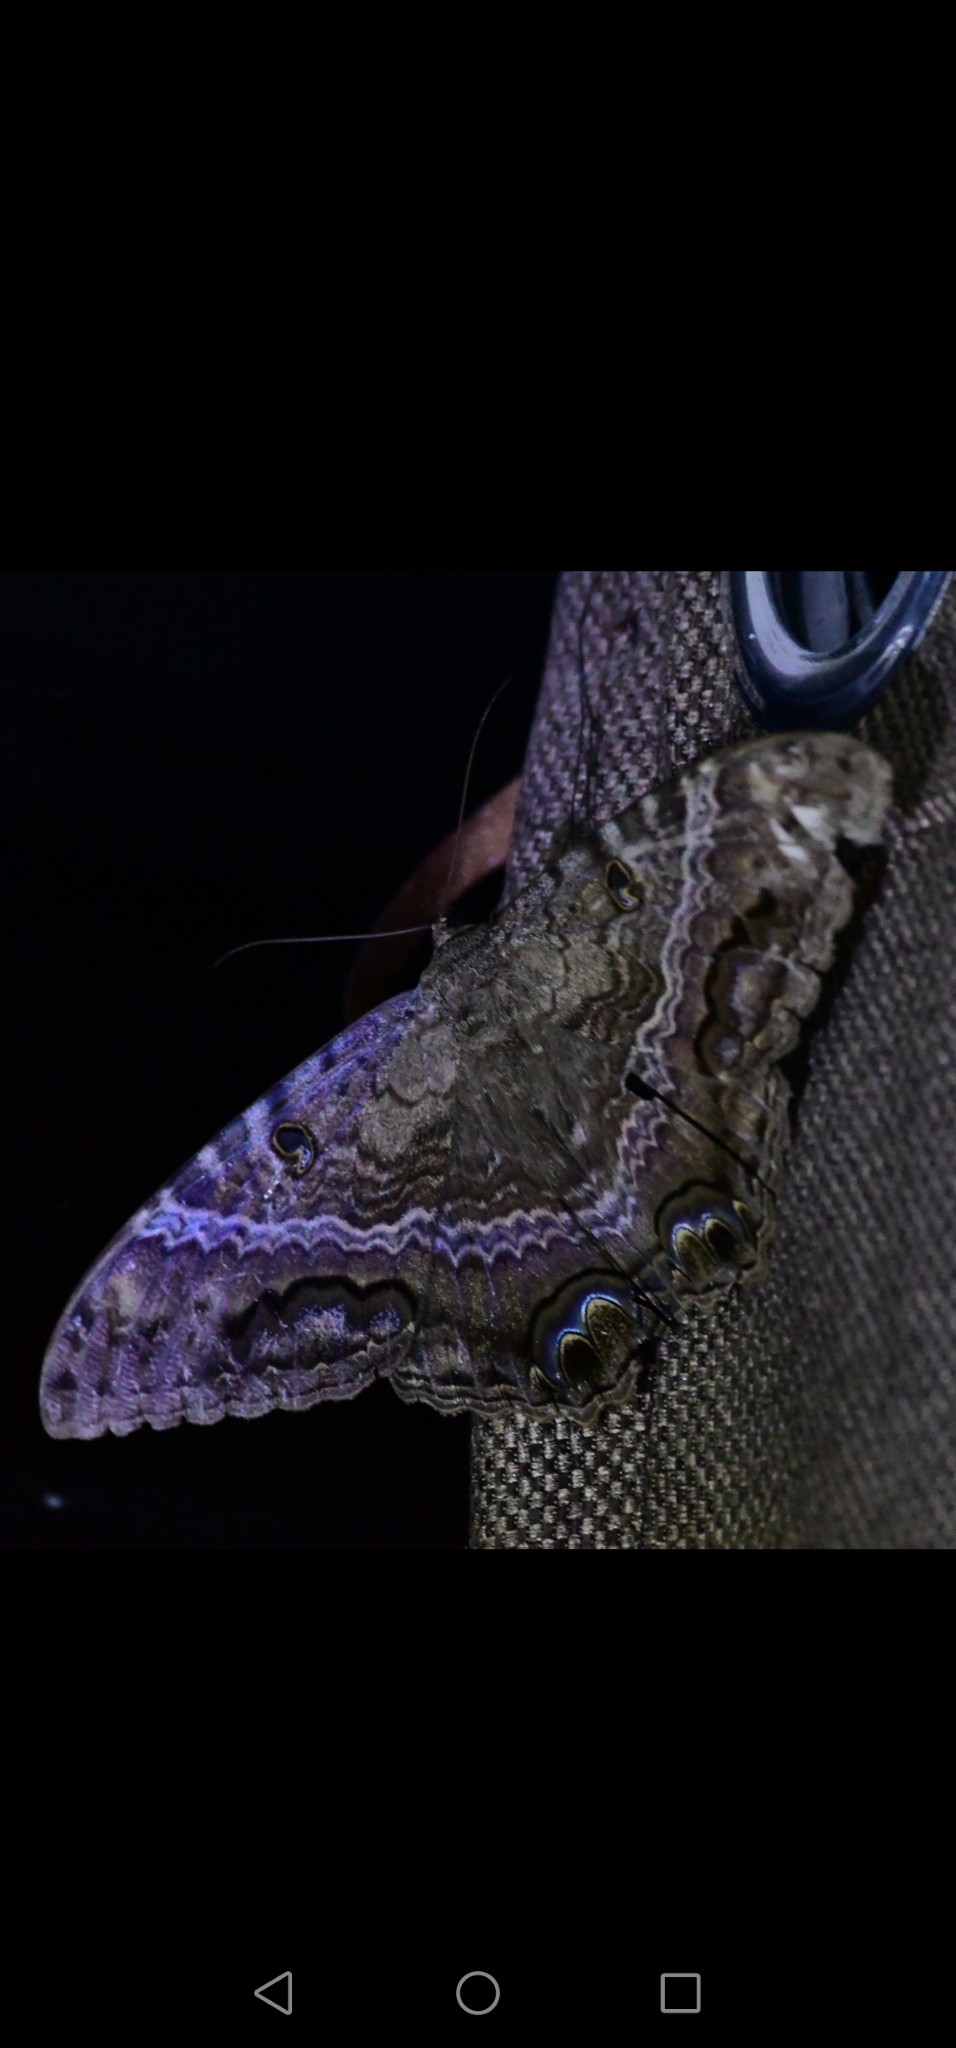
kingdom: Animalia
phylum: Arthropoda
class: Insecta
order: Lepidoptera
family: Erebidae
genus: Ascalapha
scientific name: Ascalapha odorata
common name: Black witch
